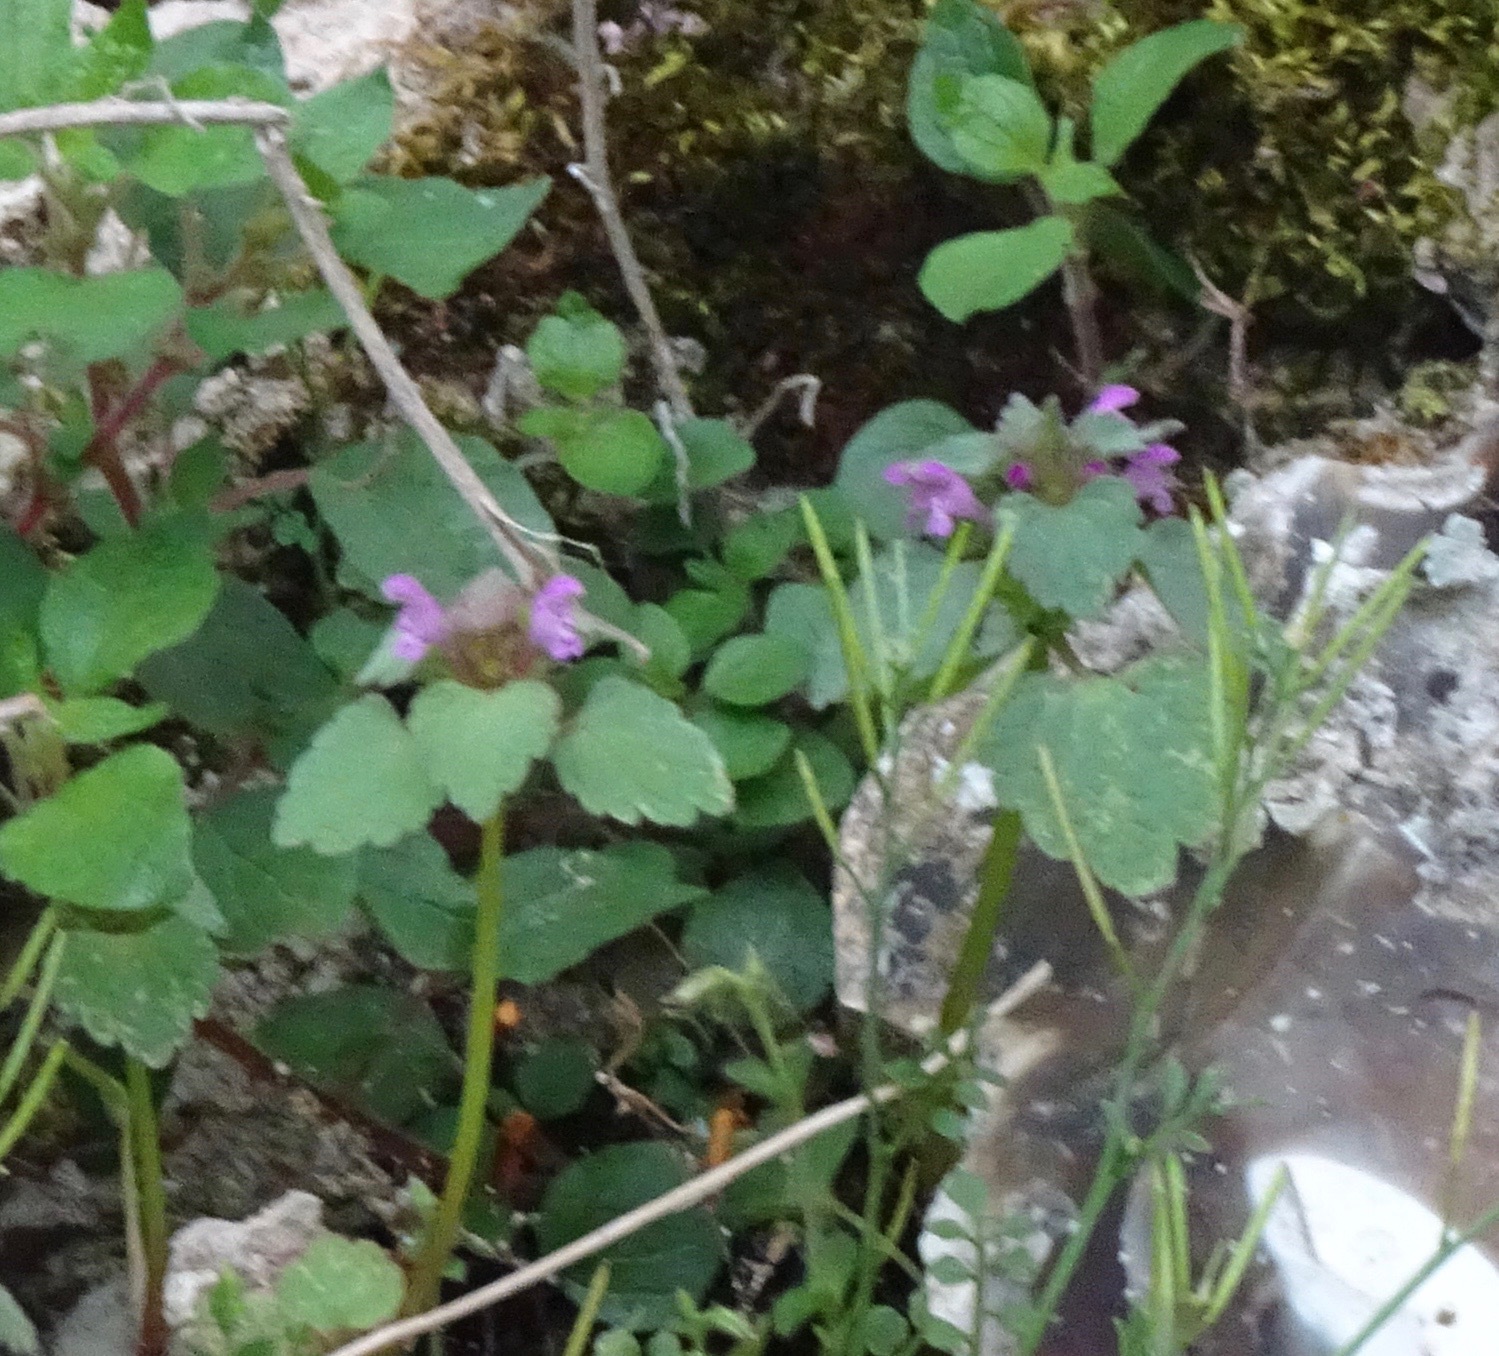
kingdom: Plantae
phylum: Tracheophyta
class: Magnoliopsida
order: Lamiales
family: Lamiaceae
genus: Lamium
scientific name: Lamium purpureum
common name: Red dead-nettle
